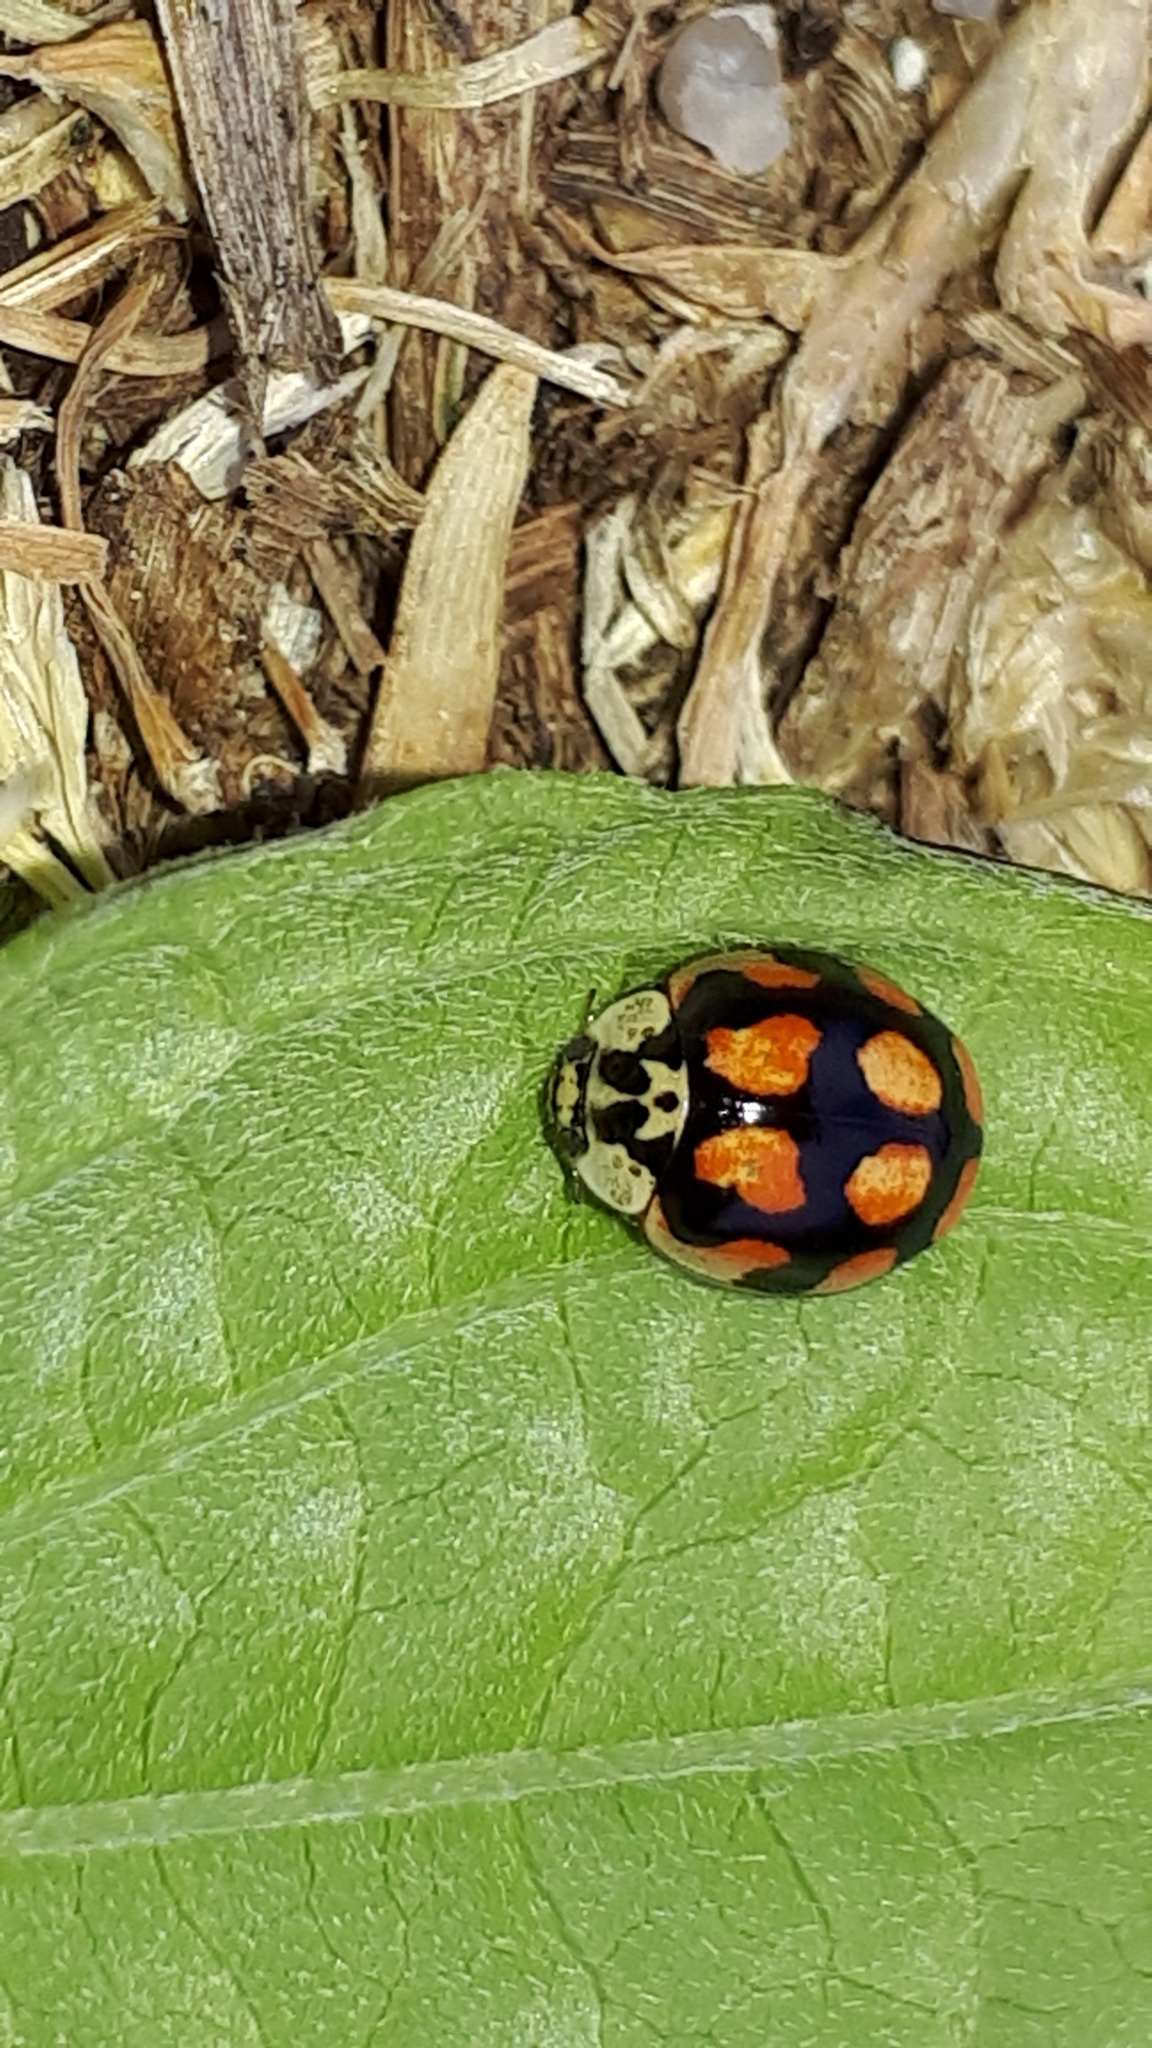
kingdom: Animalia
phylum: Arthropoda
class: Insecta
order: Coleoptera
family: Coccinellidae
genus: Adalia
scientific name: Adalia decempunctata
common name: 10-spot ladybird
